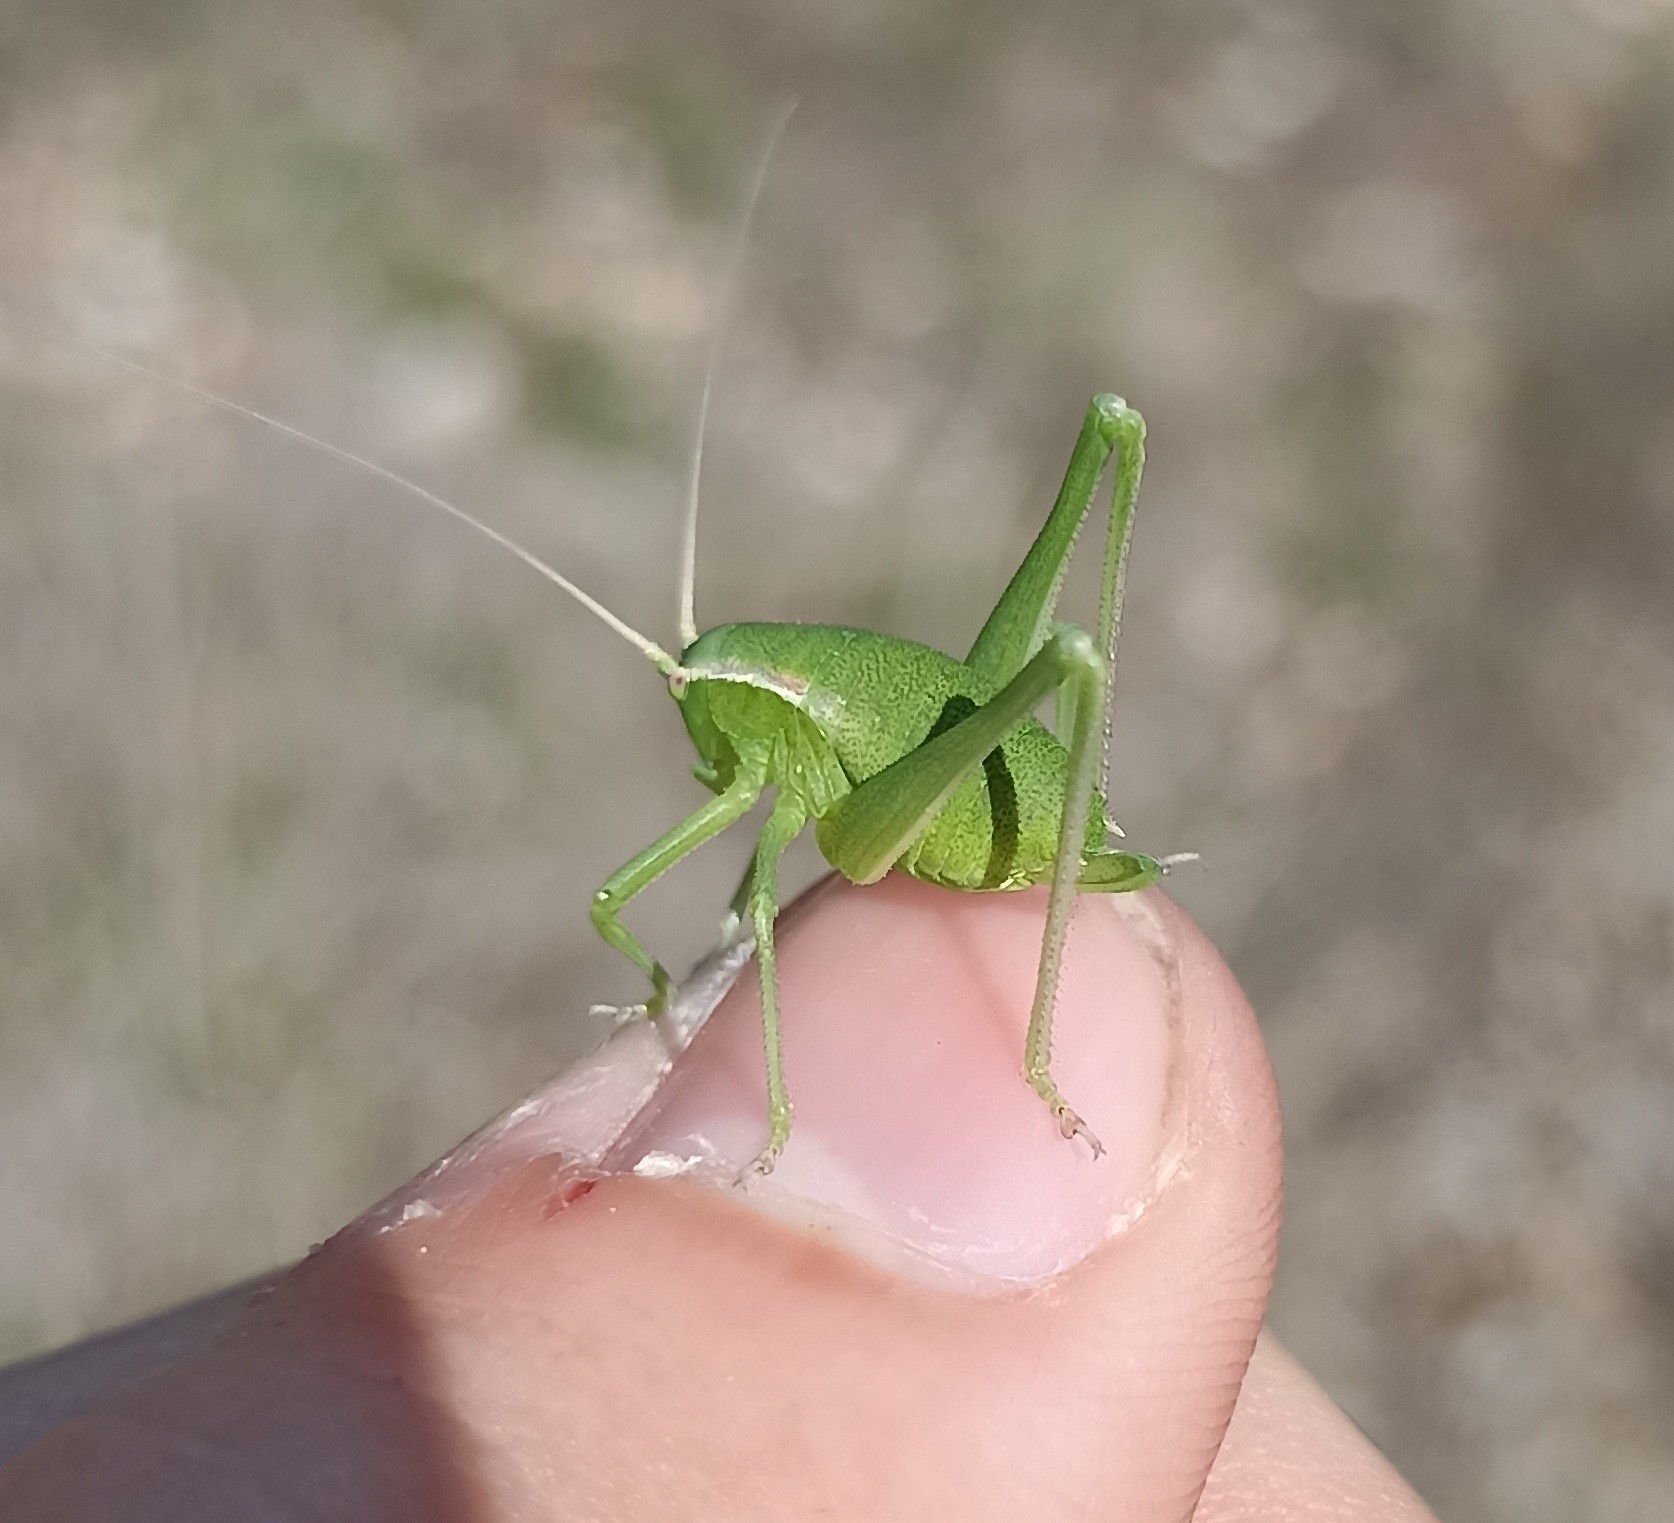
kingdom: Animalia
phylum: Arthropoda
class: Insecta
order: Orthoptera
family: Tettigoniidae
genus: Isophya
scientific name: Isophya pyrenaea
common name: Pyrenean plump bush-cricket
